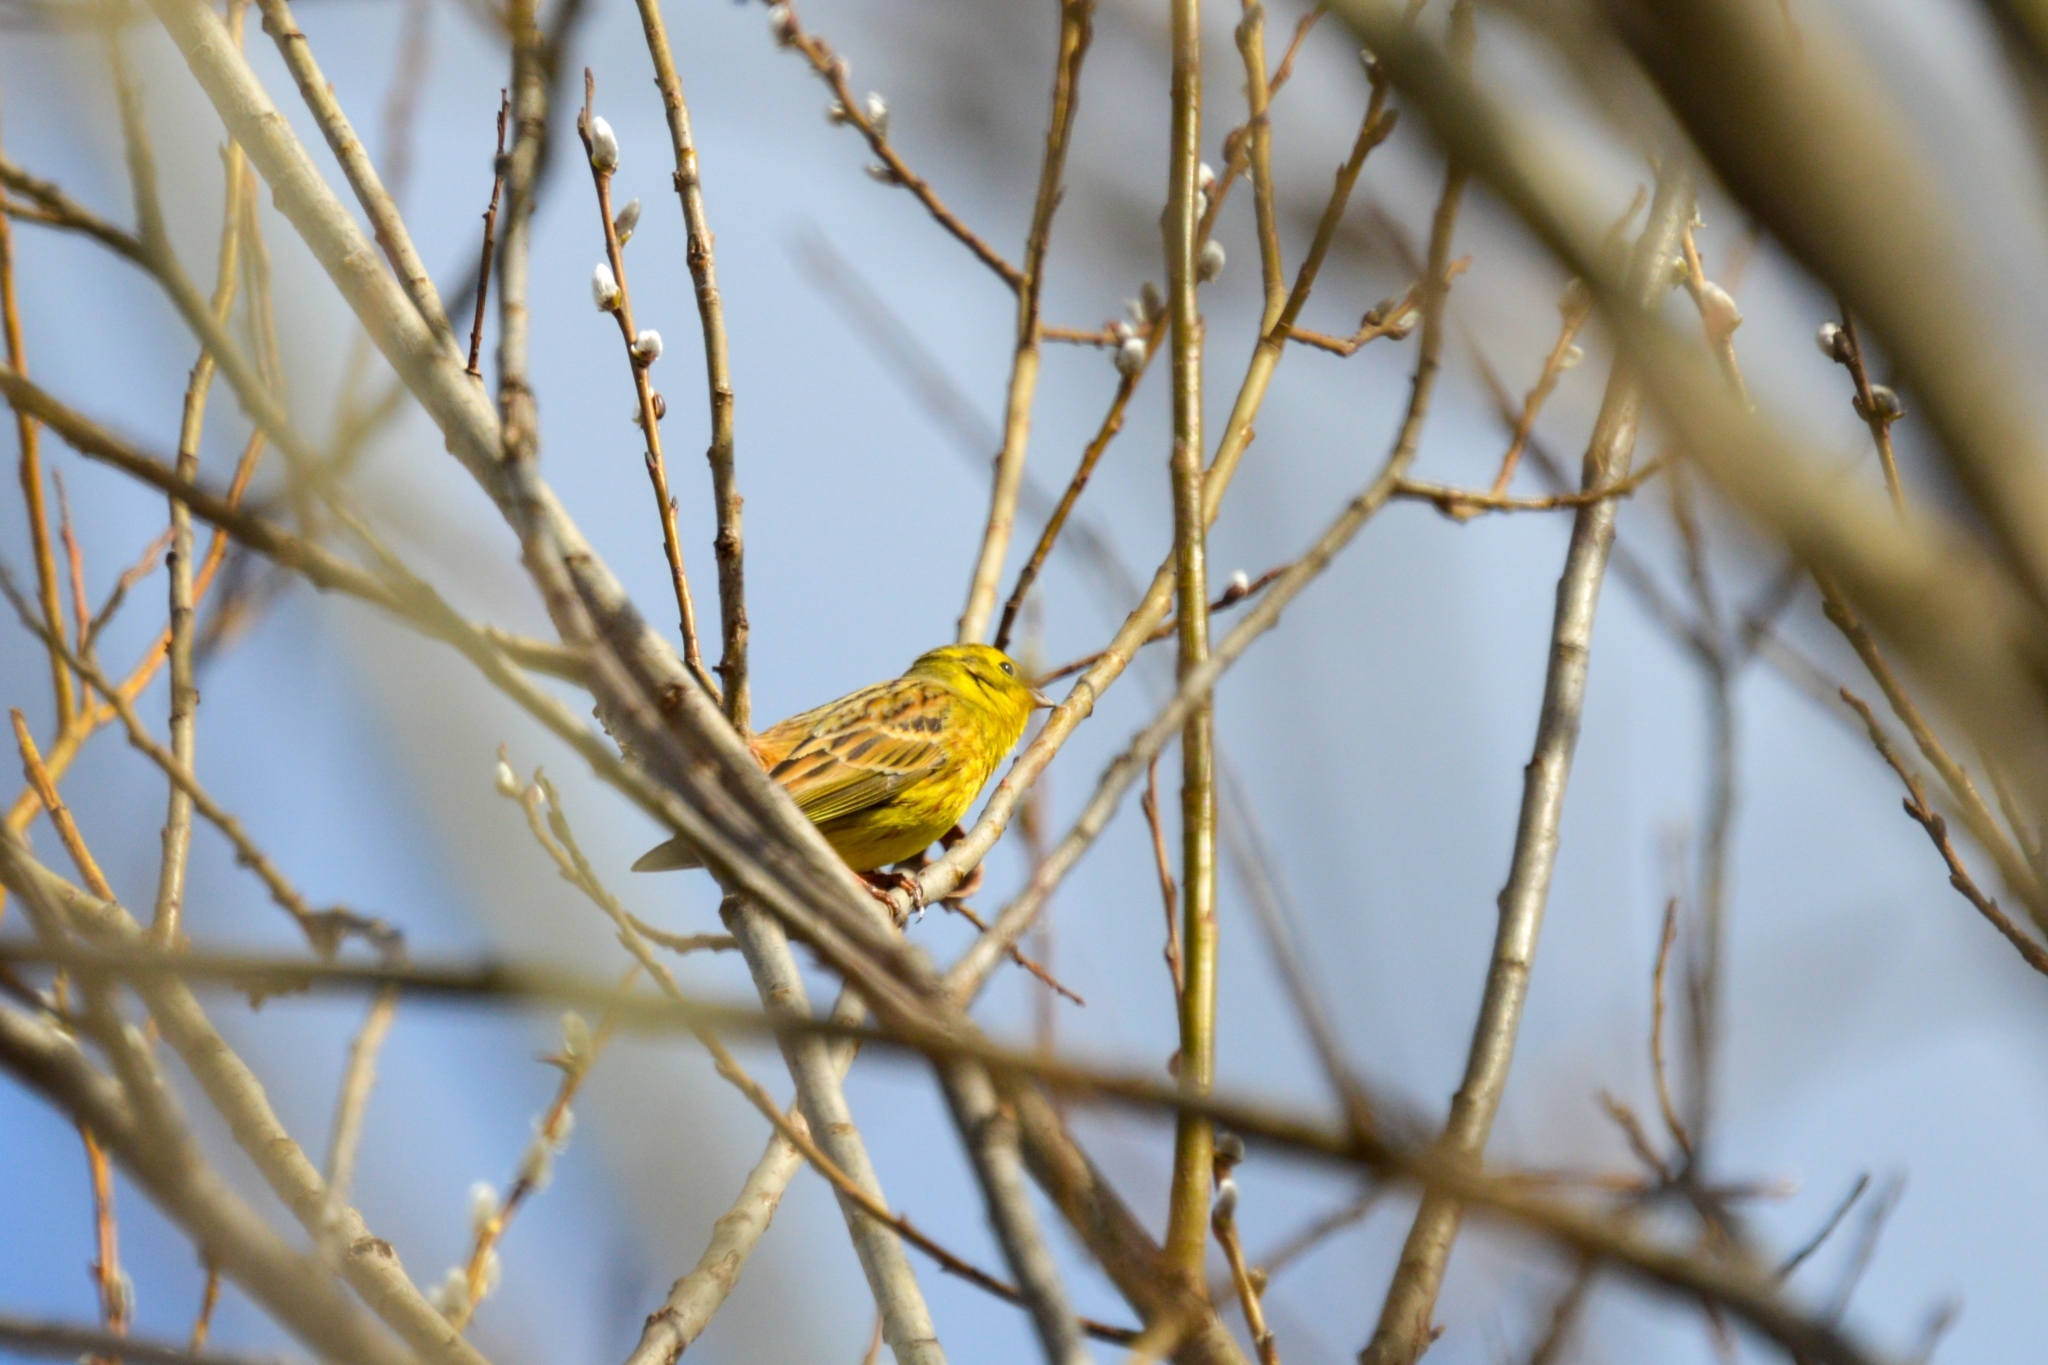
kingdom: Animalia
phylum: Chordata
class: Aves
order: Passeriformes
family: Emberizidae
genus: Emberiza
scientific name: Emberiza citrinella
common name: Yellowhammer
